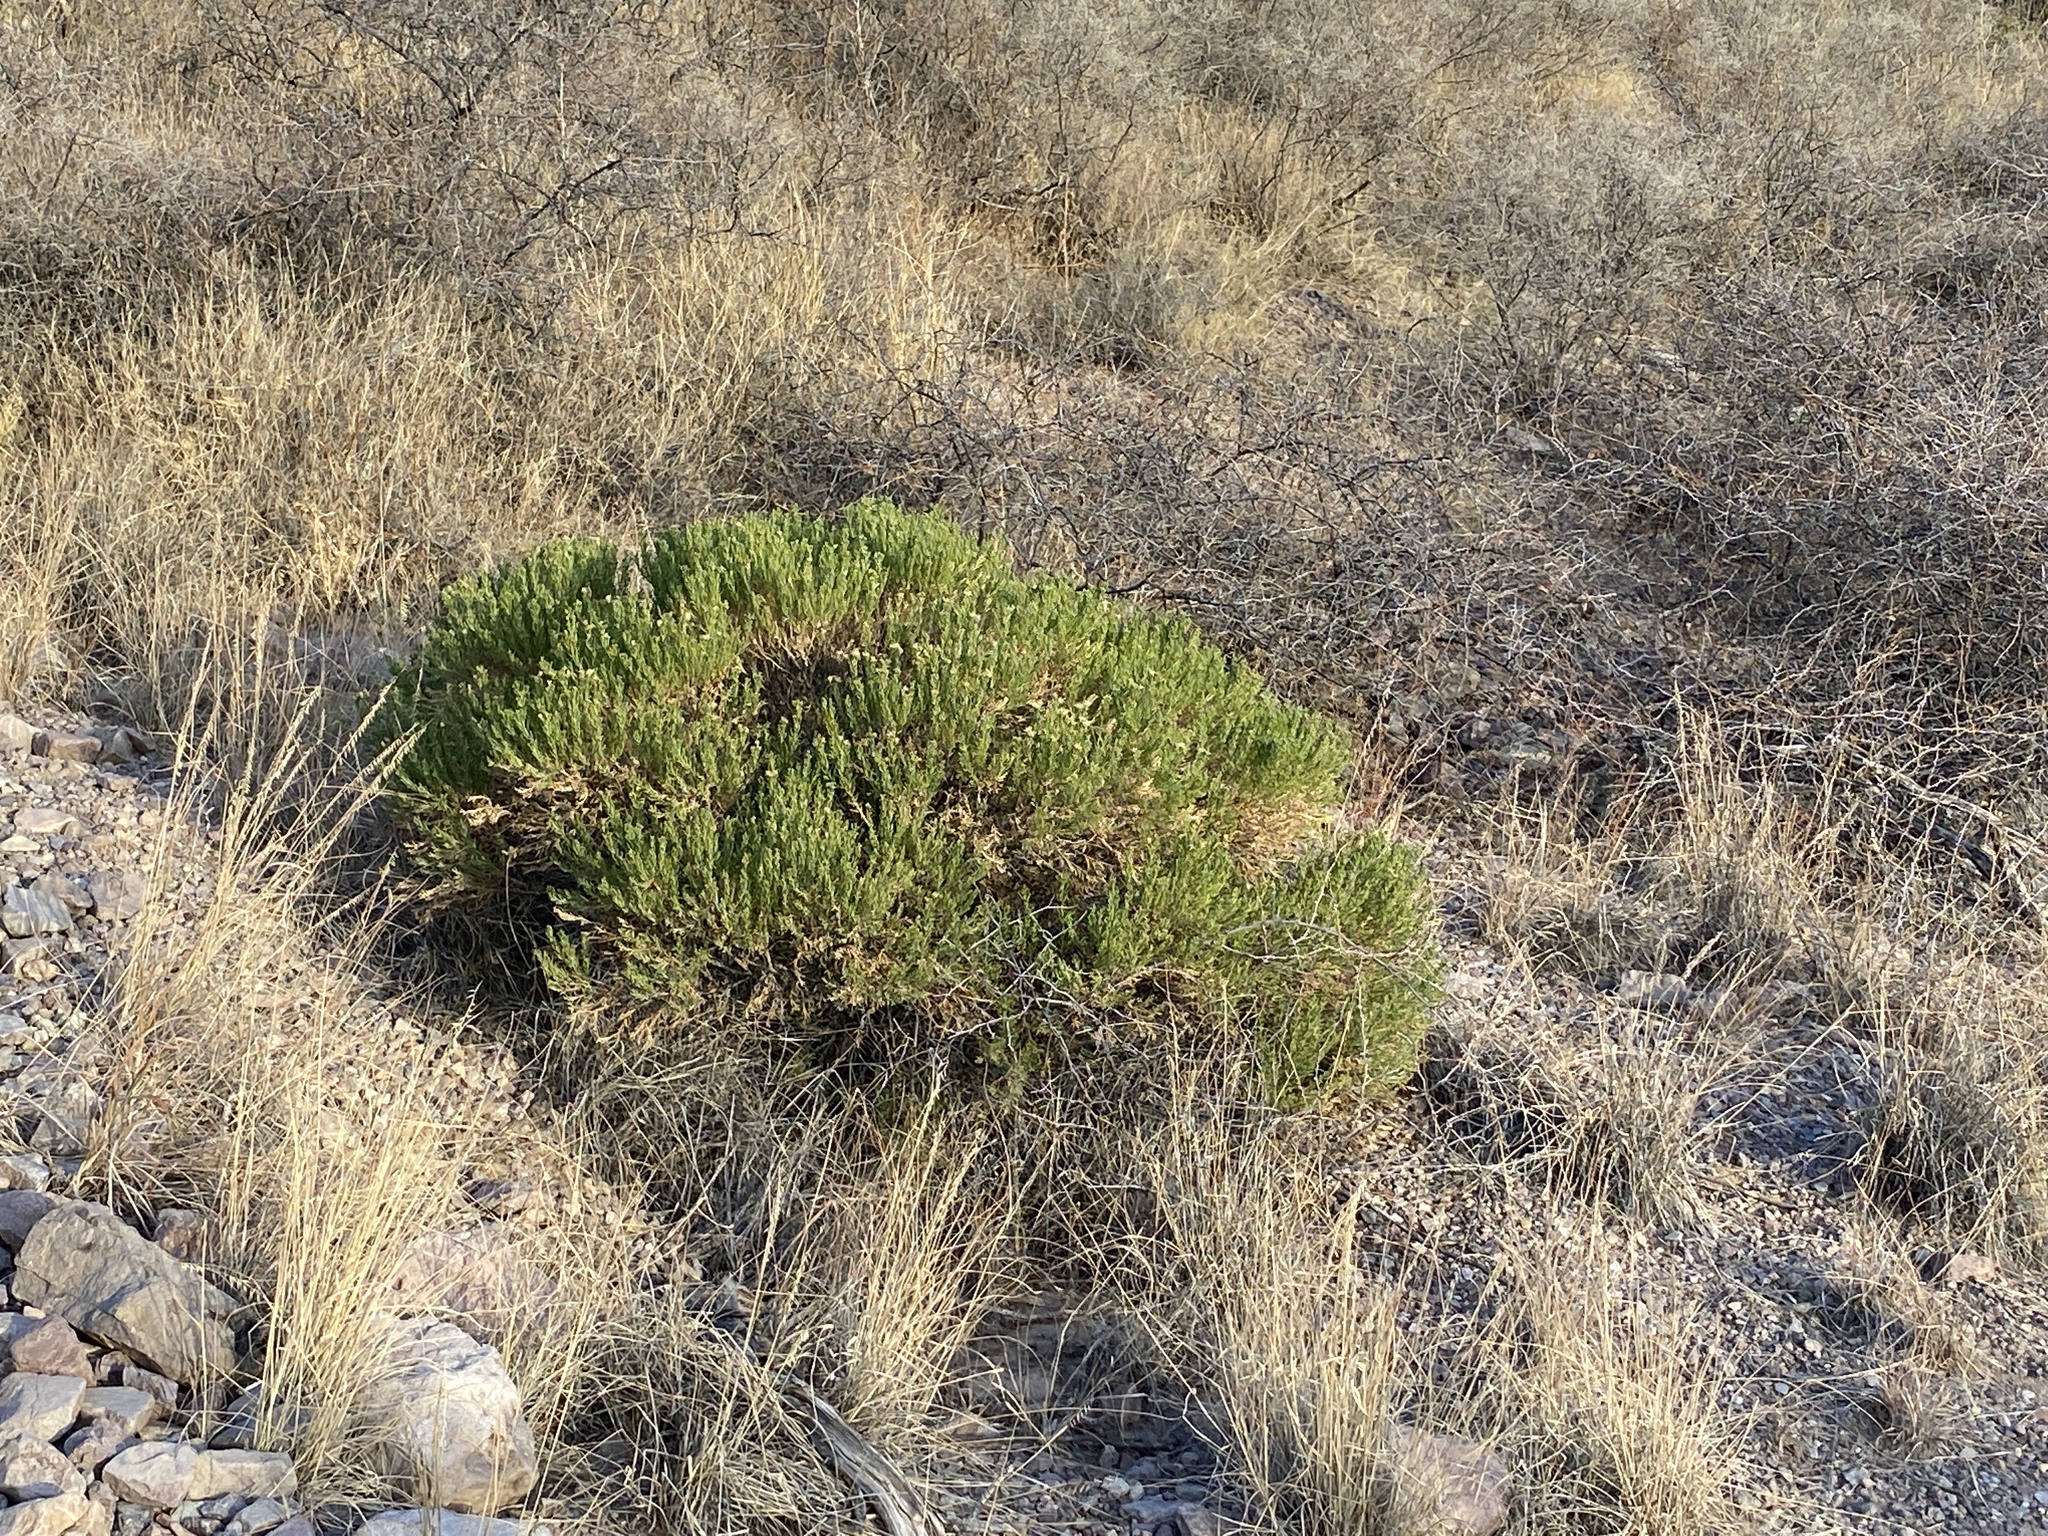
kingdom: Plantae
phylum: Tracheophyta
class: Magnoliopsida
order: Asterales
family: Asteraceae
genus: Ericameria
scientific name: Ericameria laricifolia
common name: Turpentine-bush
